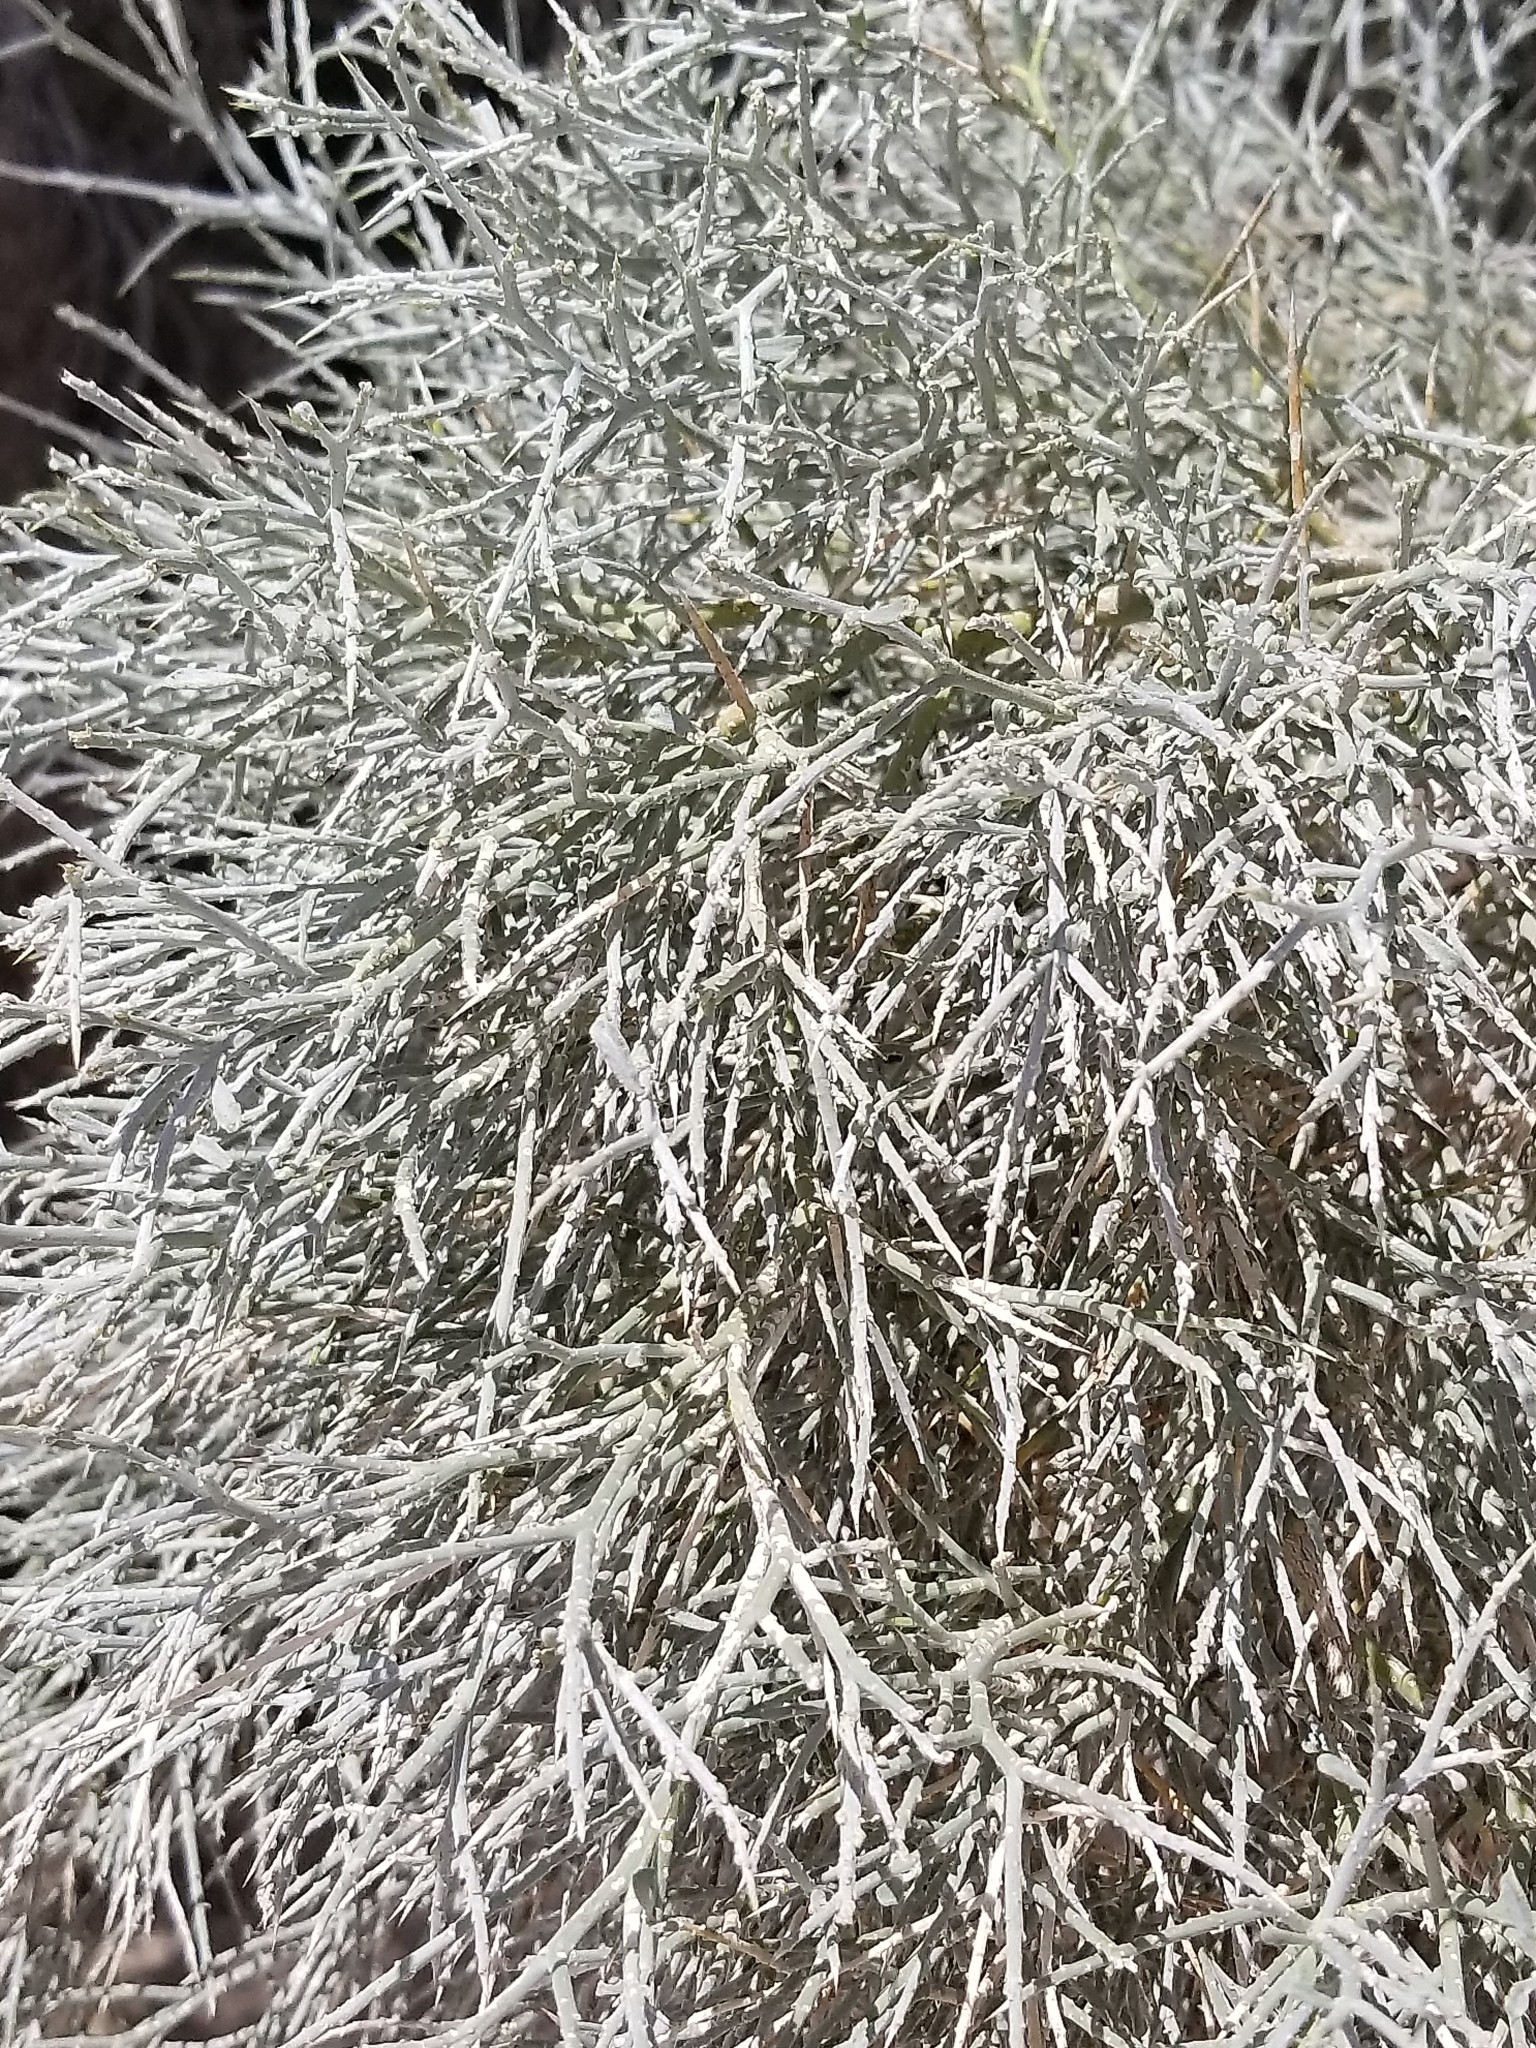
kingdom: Plantae
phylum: Tracheophyta
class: Magnoliopsida
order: Fabales
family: Fabaceae
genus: Psorothamnus
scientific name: Psorothamnus spinosus
